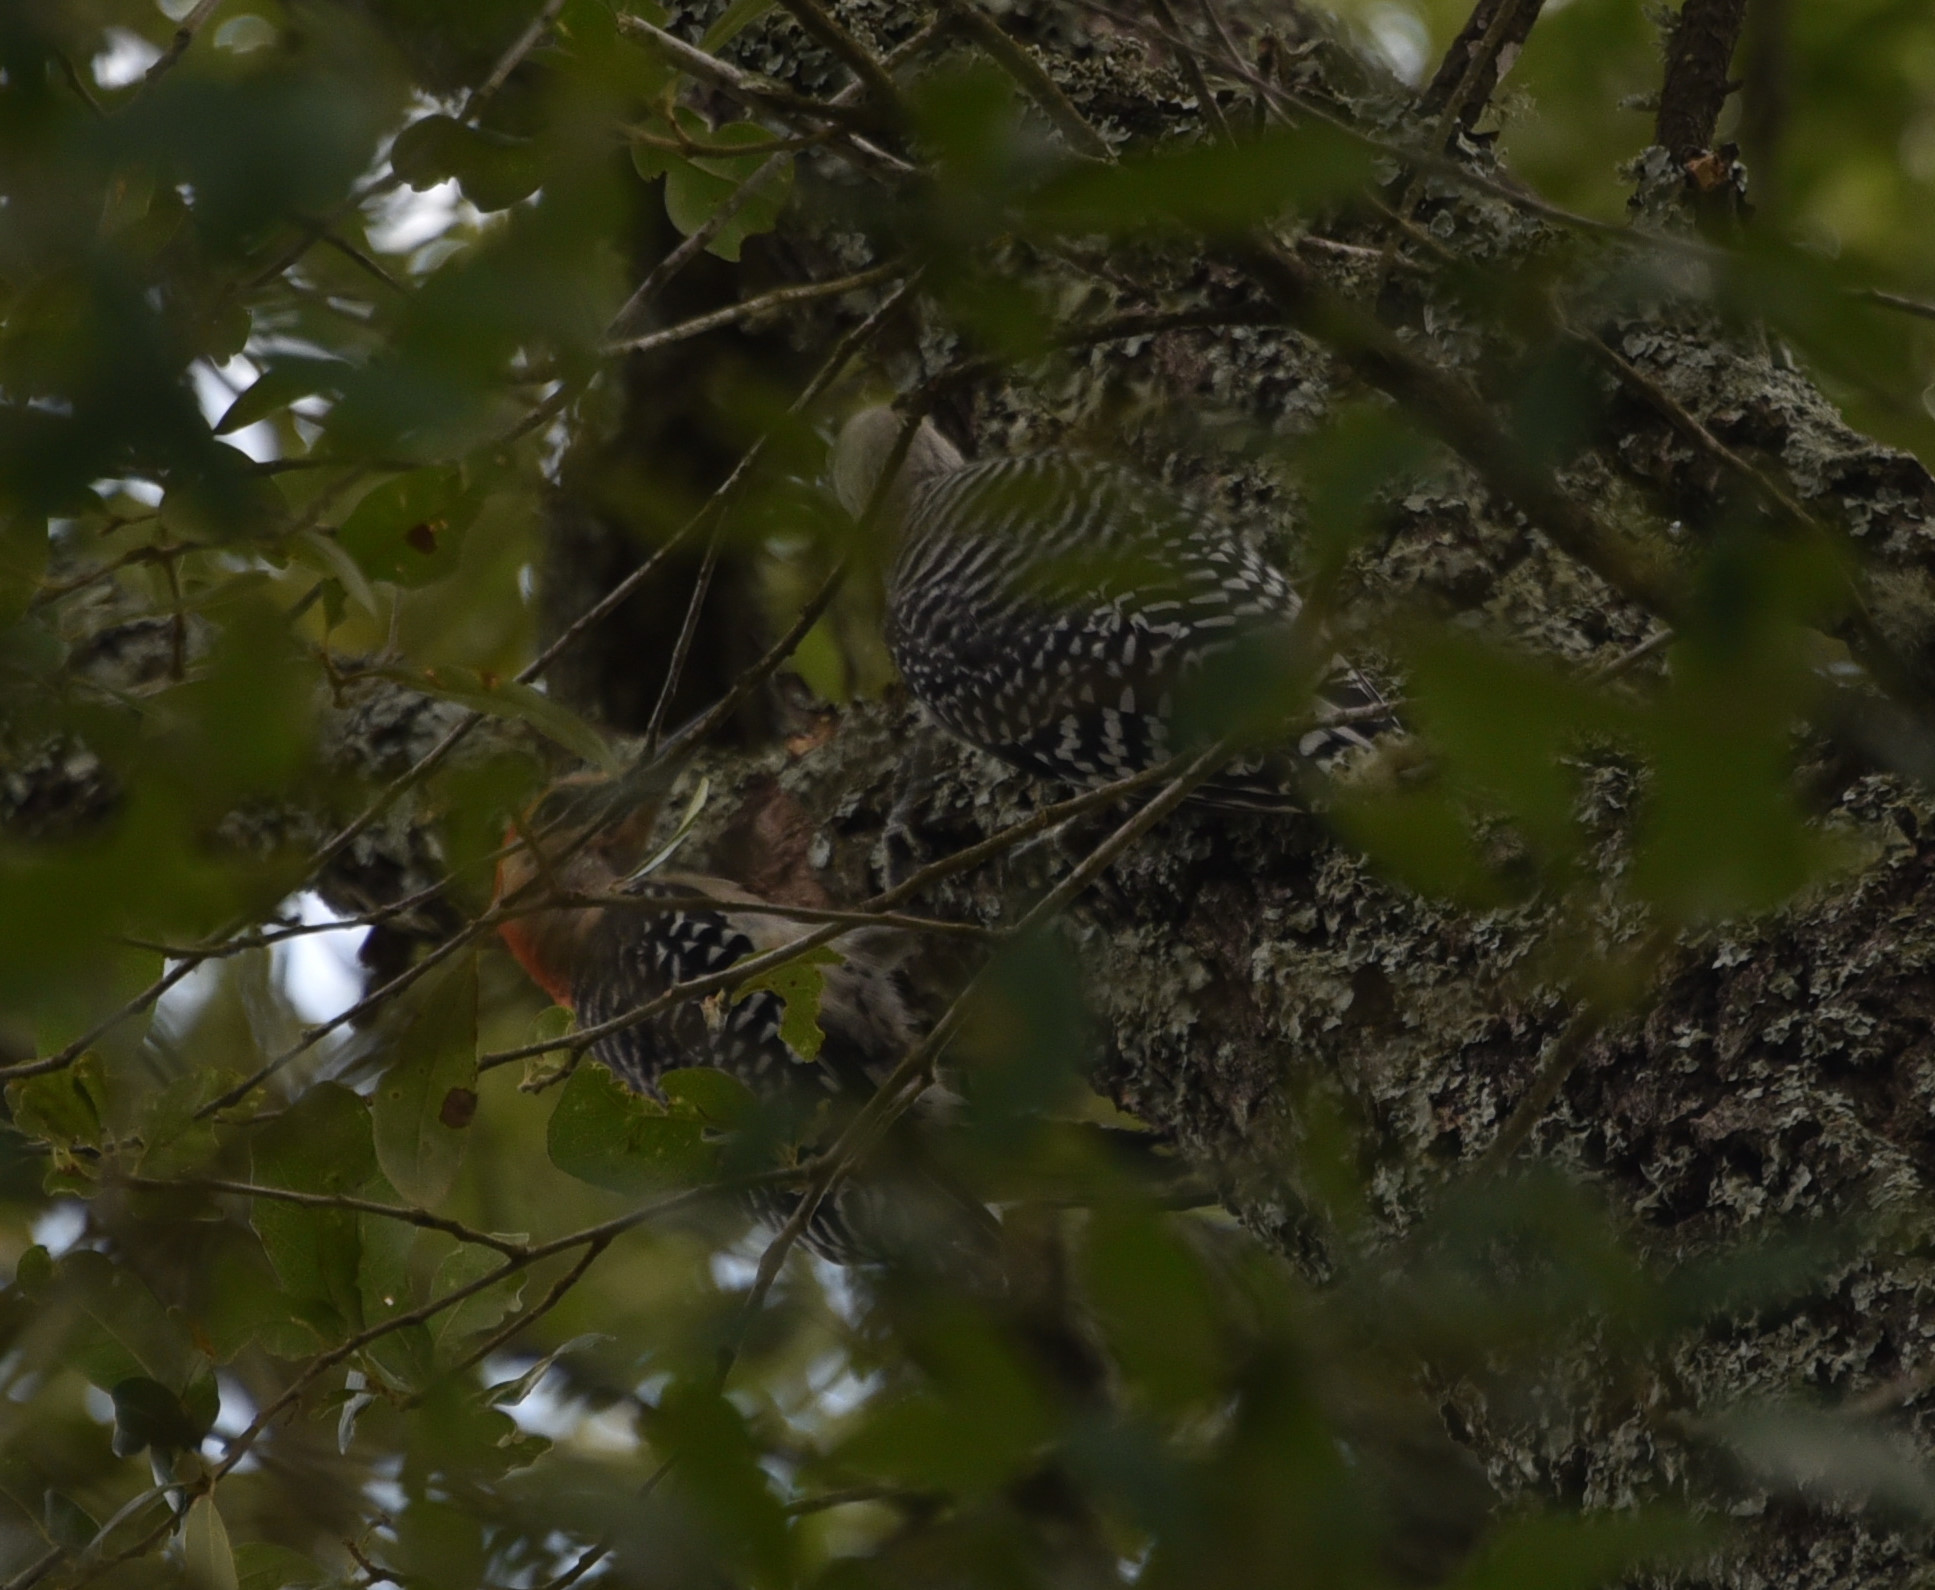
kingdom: Animalia
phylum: Chordata
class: Aves
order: Piciformes
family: Picidae
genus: Melanerpes
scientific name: Melanerpes carolinus
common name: Red-bellied woodpecker
